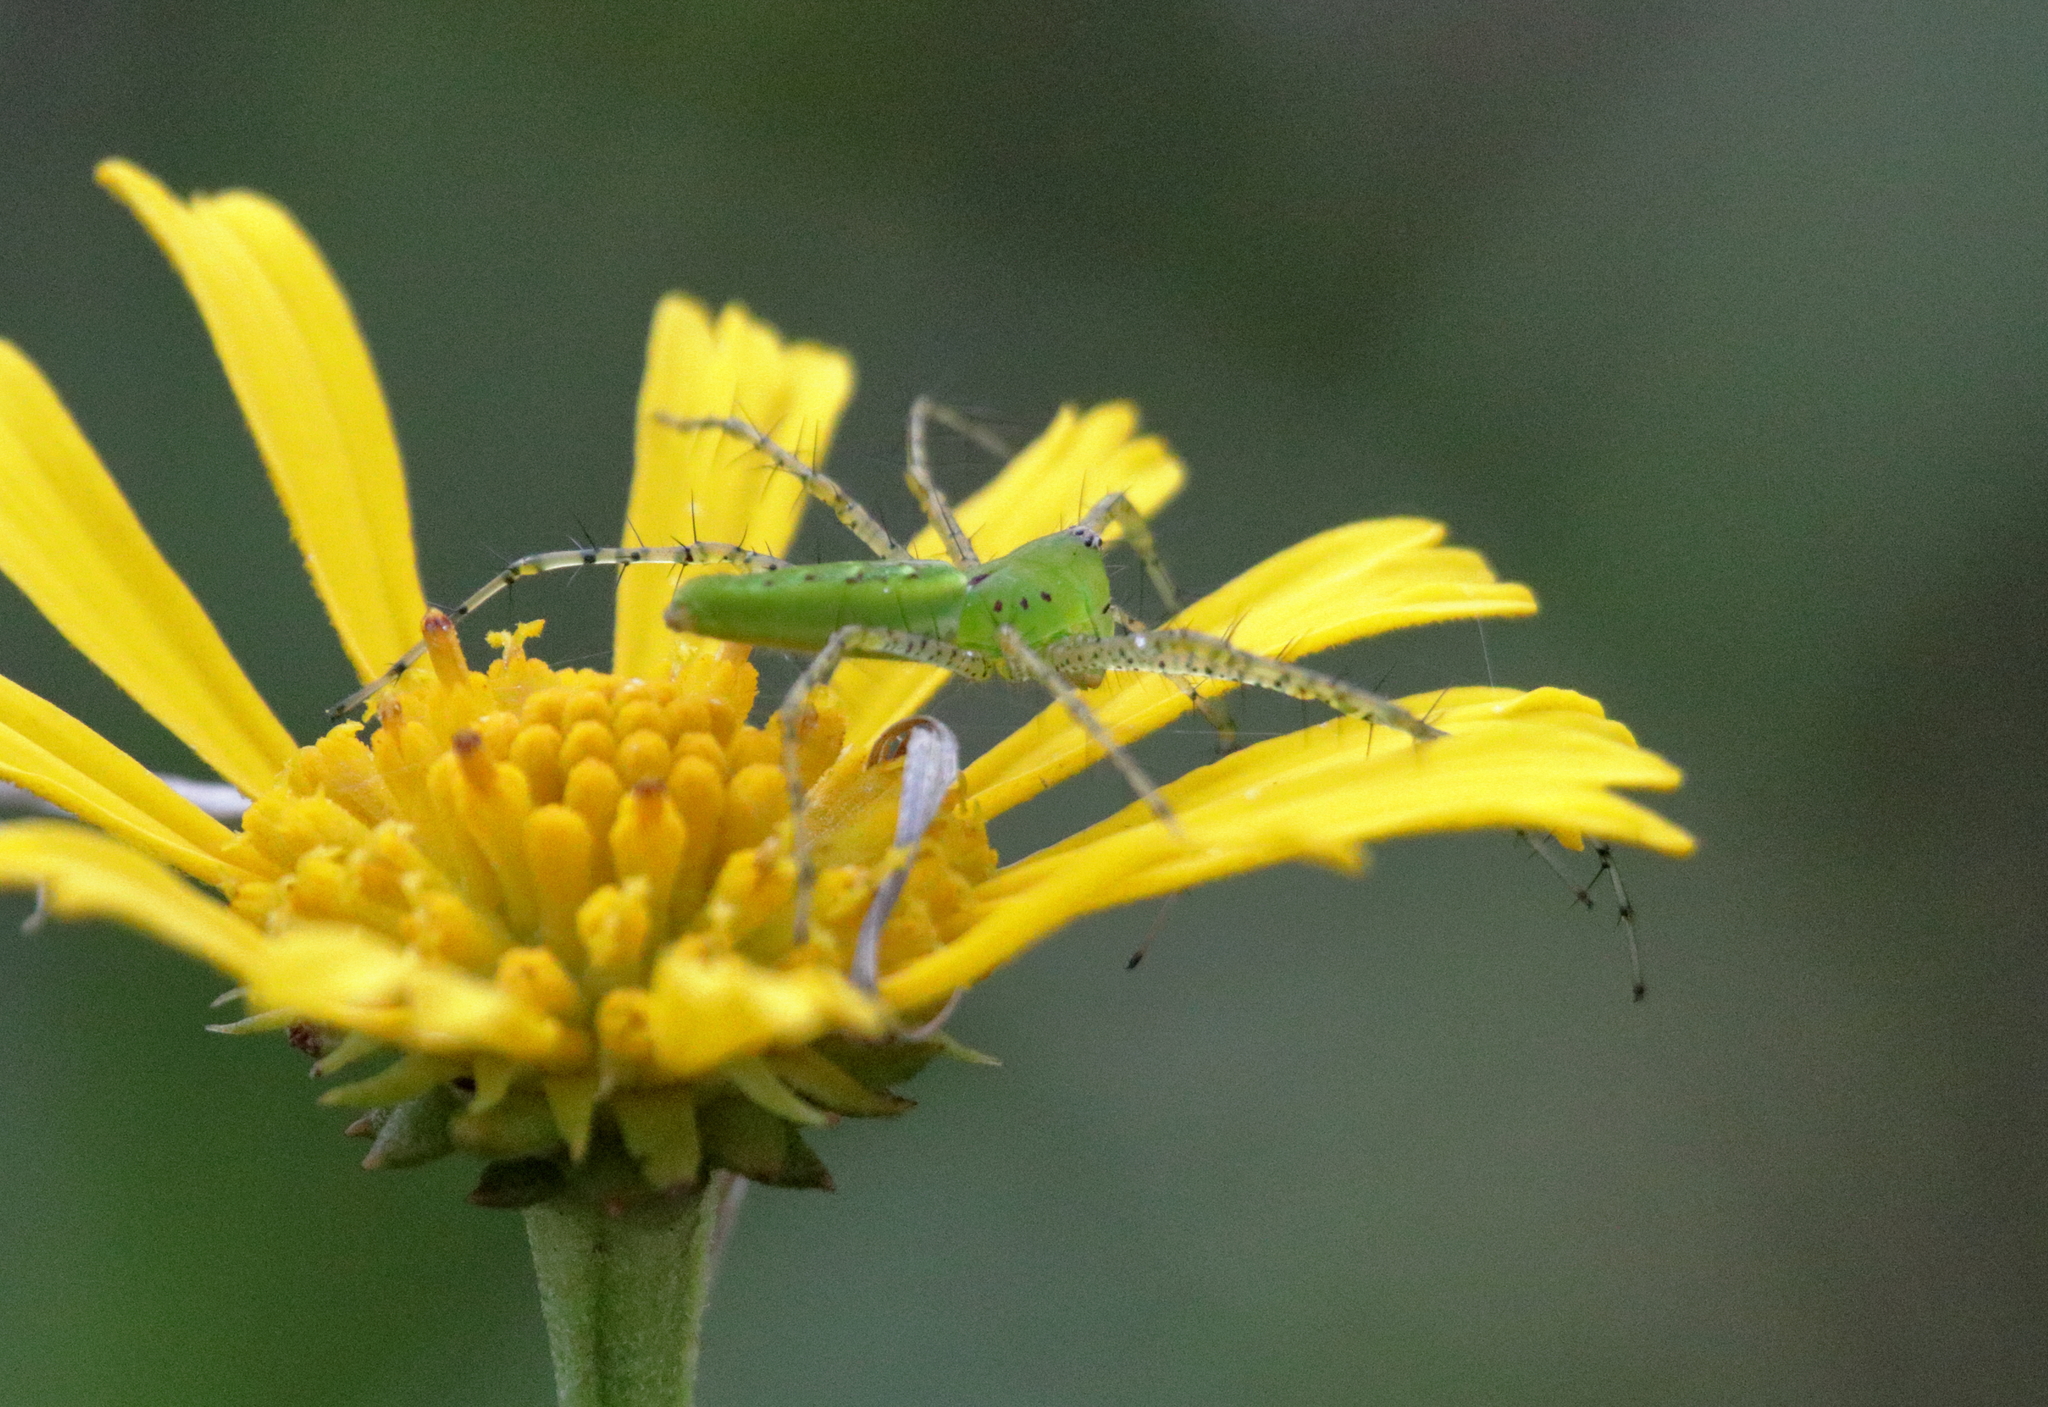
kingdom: Animalia
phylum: Arthropoda
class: Arachnida
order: Araneae
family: Oxyopidae
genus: Peucetia
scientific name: Peucetia viridans
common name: Lynx spiders
